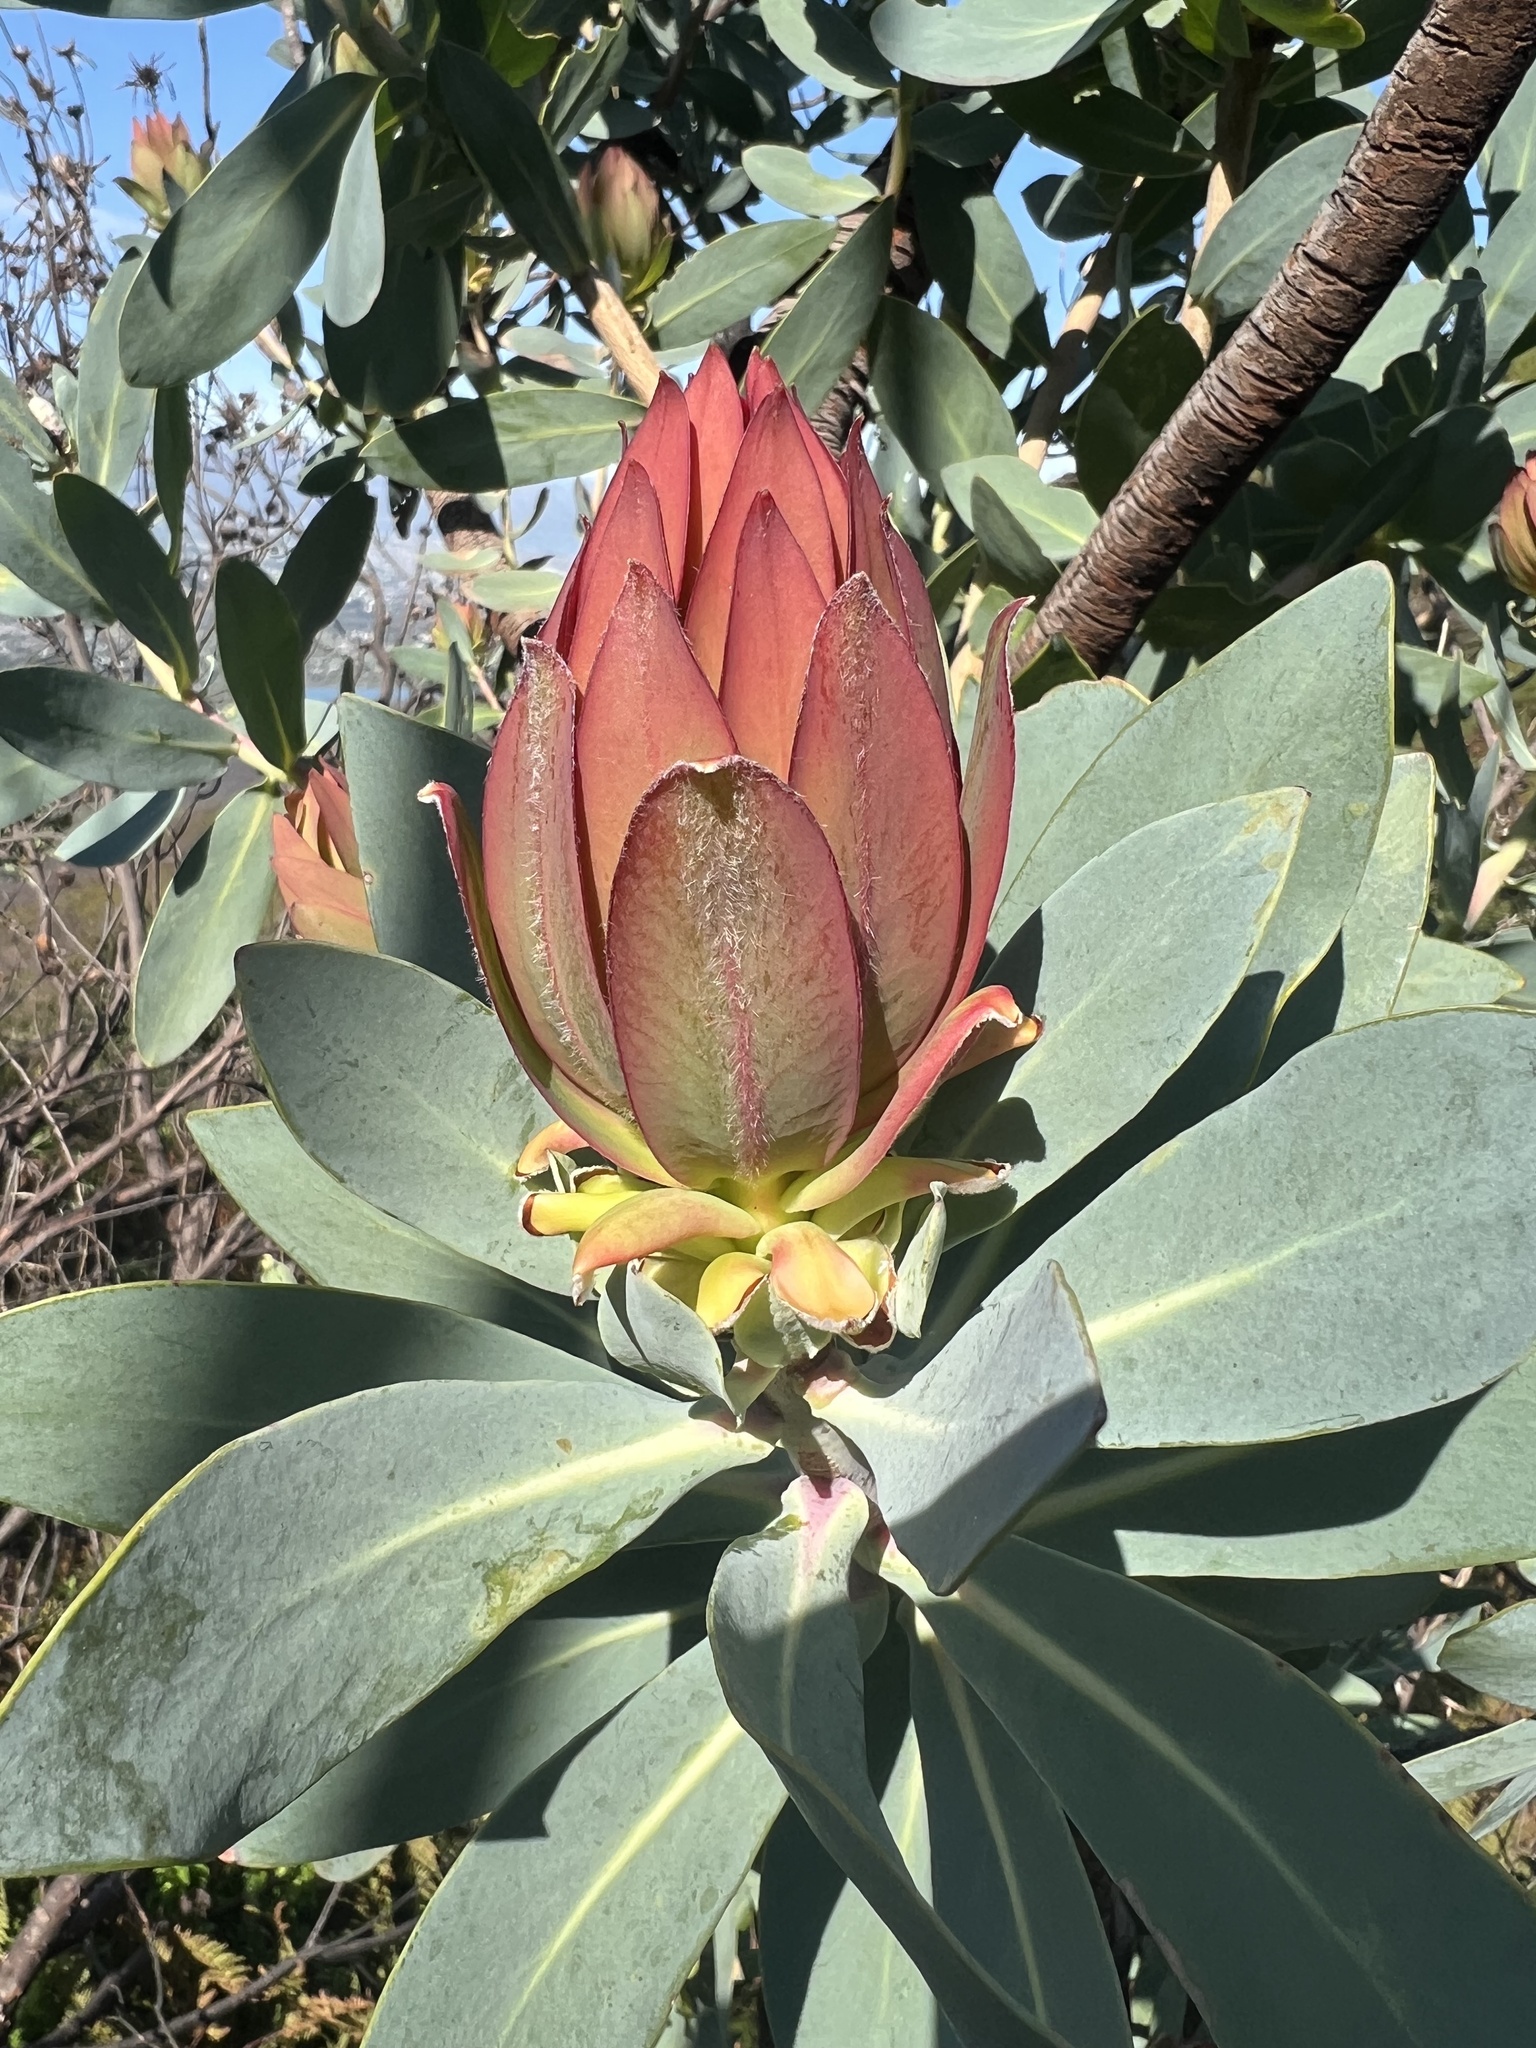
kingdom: Plantae
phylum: Tracheophyta
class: Magnoliopsida
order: Proteales
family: Proteaceae
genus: Protea
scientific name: Protea nitida
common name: Tree protea
